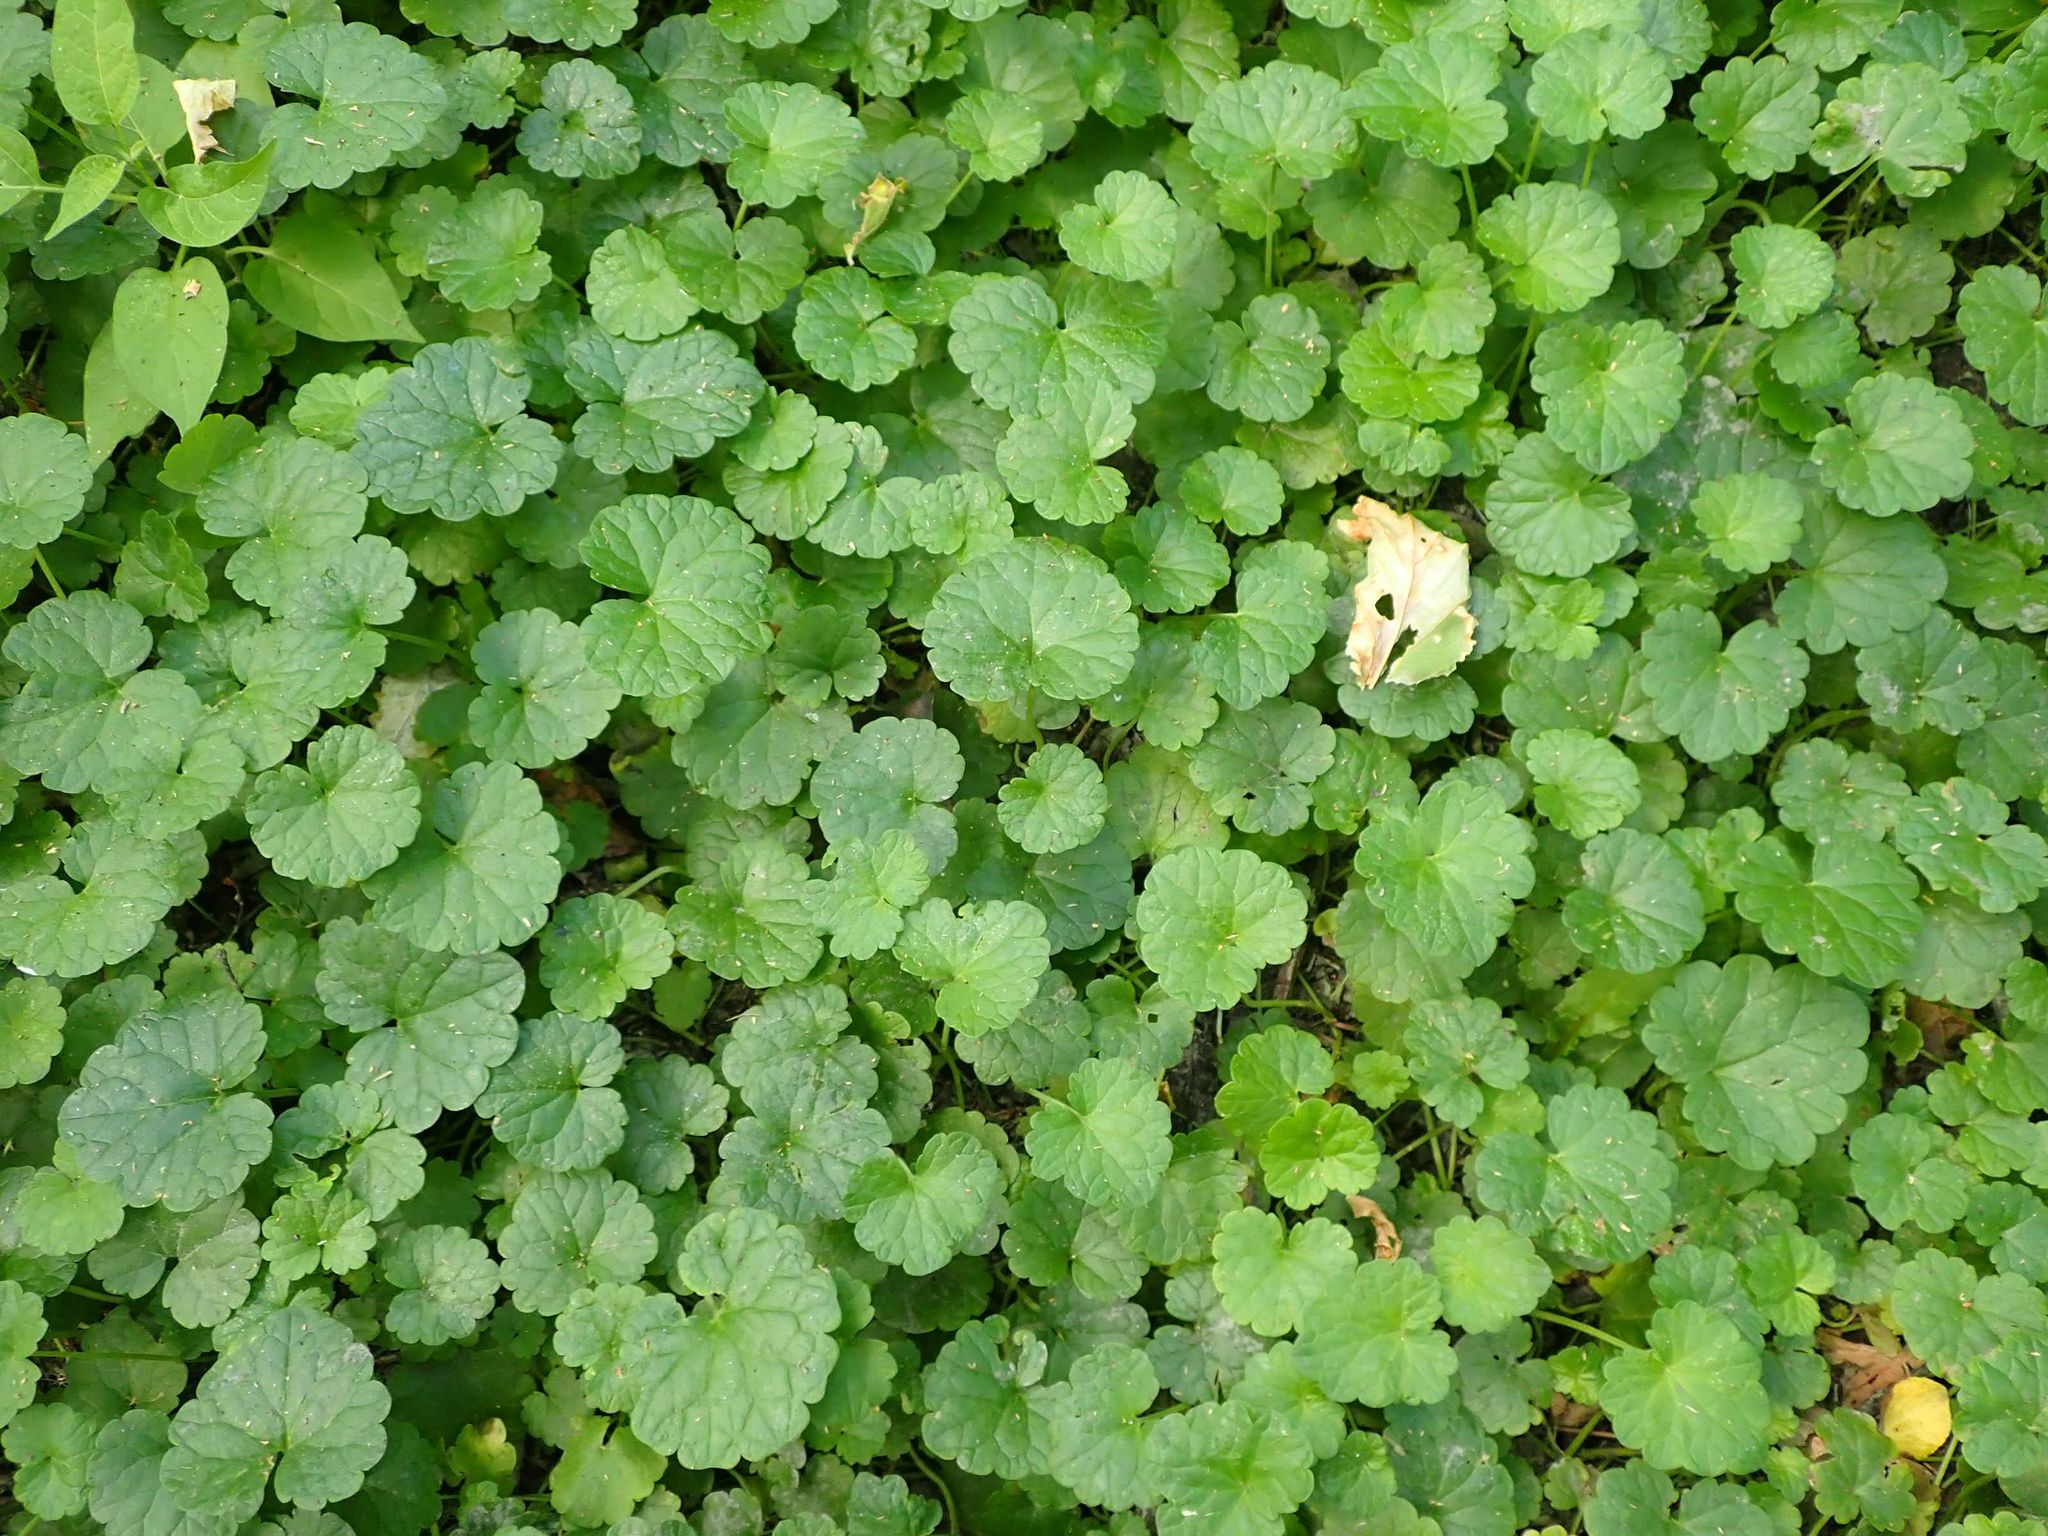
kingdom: Plantae
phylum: Tracheophyta
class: Magnoliopsida
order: Lamiales
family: Lamiaceae
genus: Glechoma
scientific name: Glechoma hederacea
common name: Ground ivy
